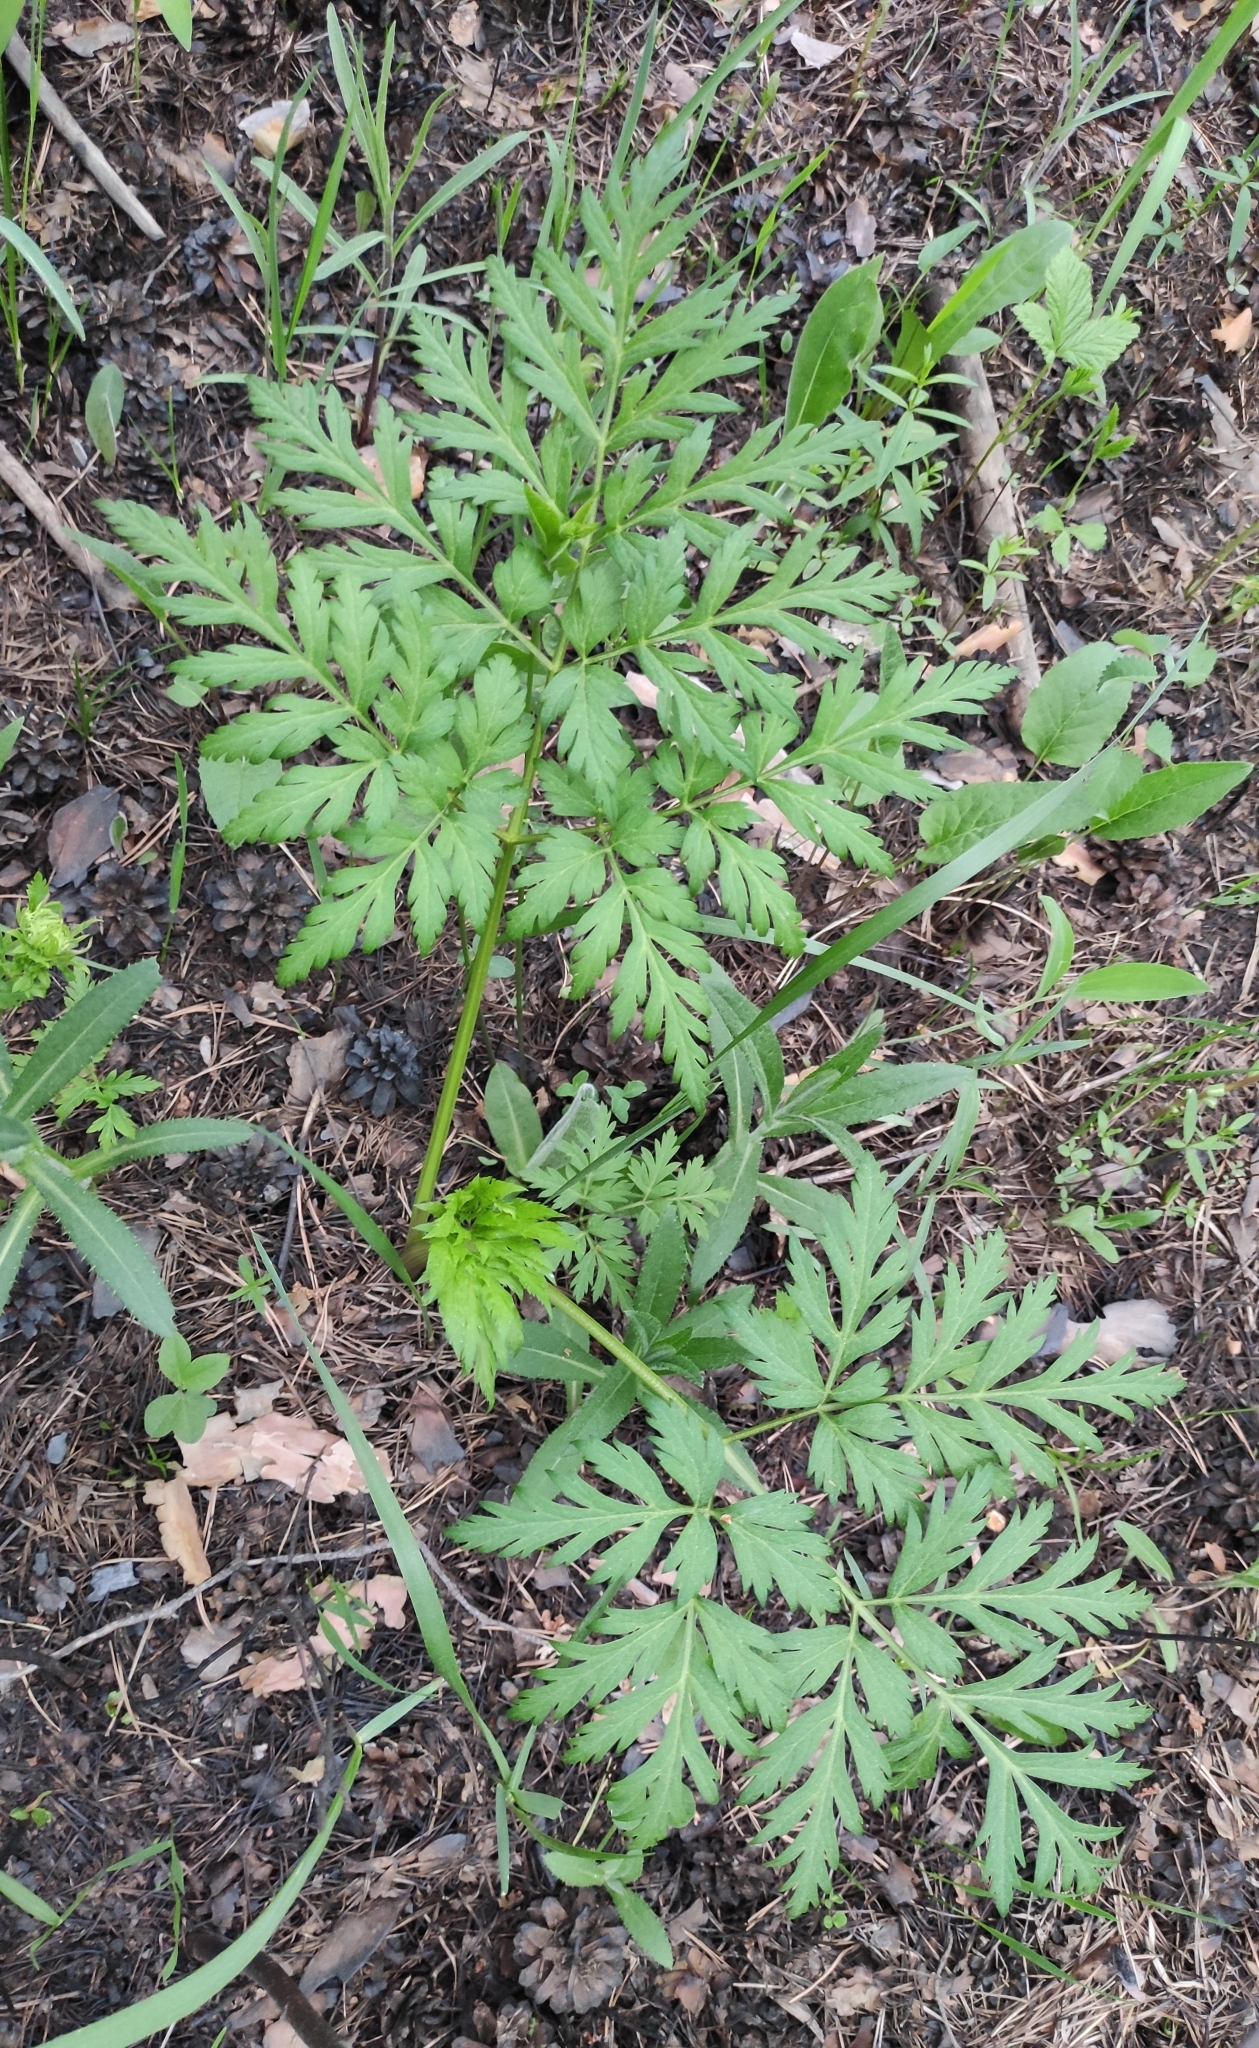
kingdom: Plantae
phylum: Tracheophyta
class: Magnoliopsida
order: Apiales
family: Apiaceae
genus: Pleurospermum
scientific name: Pleurospermum uralense
